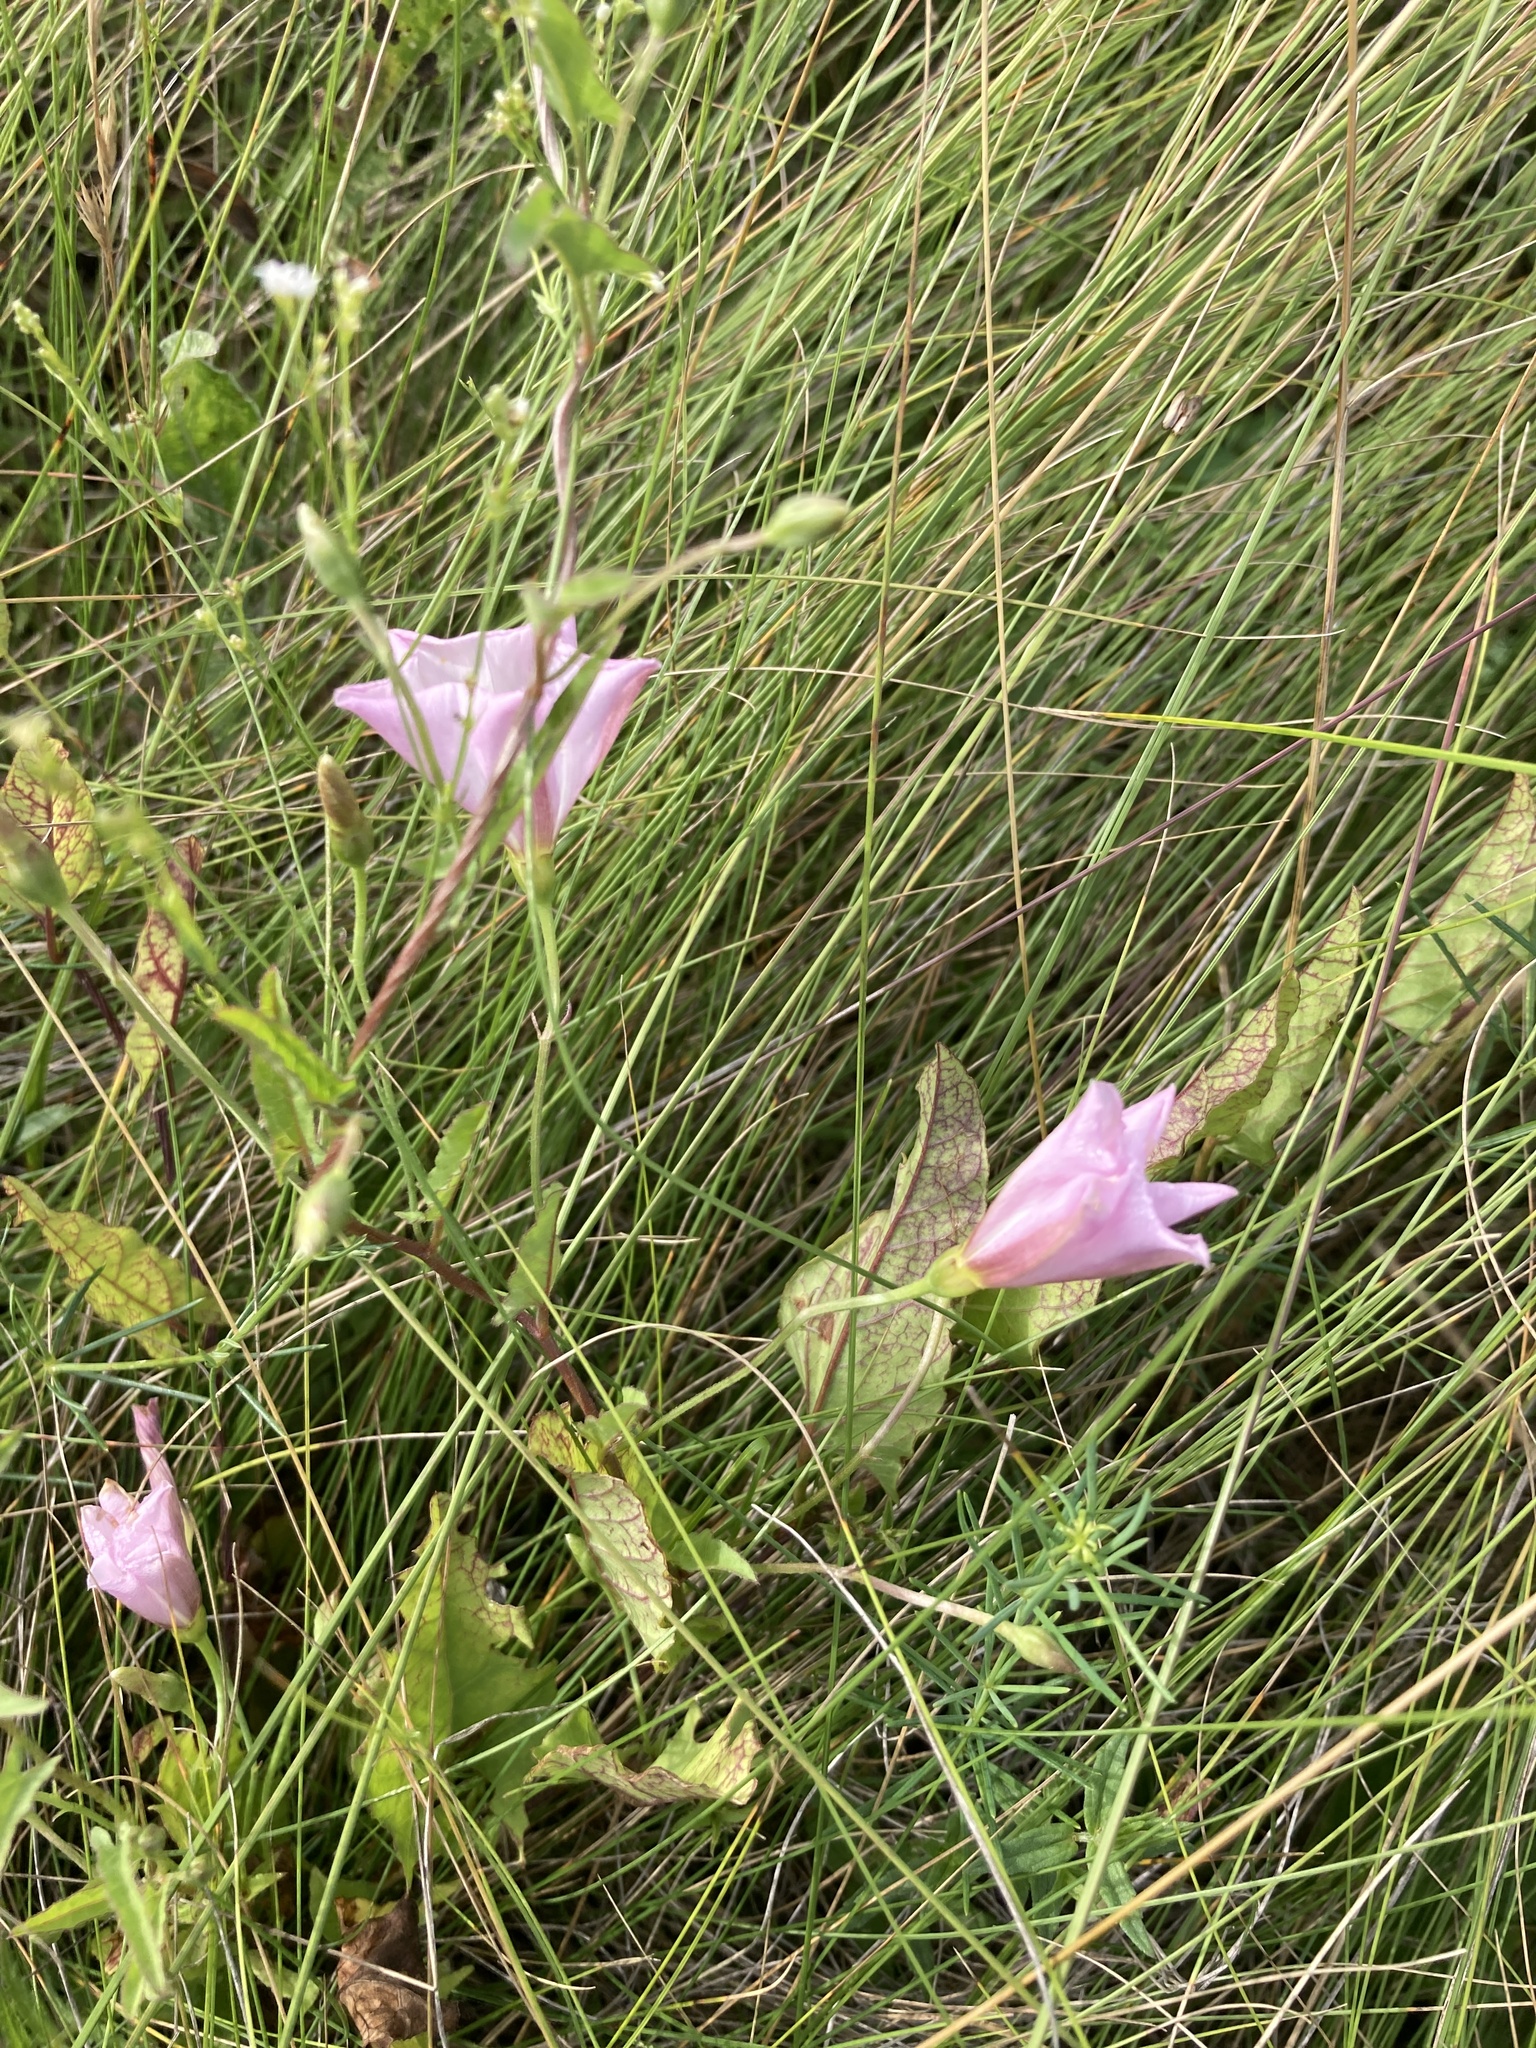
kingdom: Plantae
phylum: Tracheophyta
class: Magnoliopsida
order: Solanales
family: Convolvulaceae
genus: Convolvulus
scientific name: Convolvulus arvensis
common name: Field bindweed
